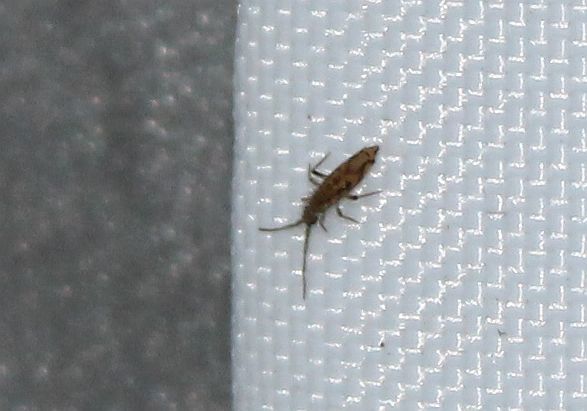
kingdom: Animalia
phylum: Arthropoda
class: Collembola
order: Entomobryomorpha
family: Entomobryidae
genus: Entomobrya
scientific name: Entomobrya intermedia
